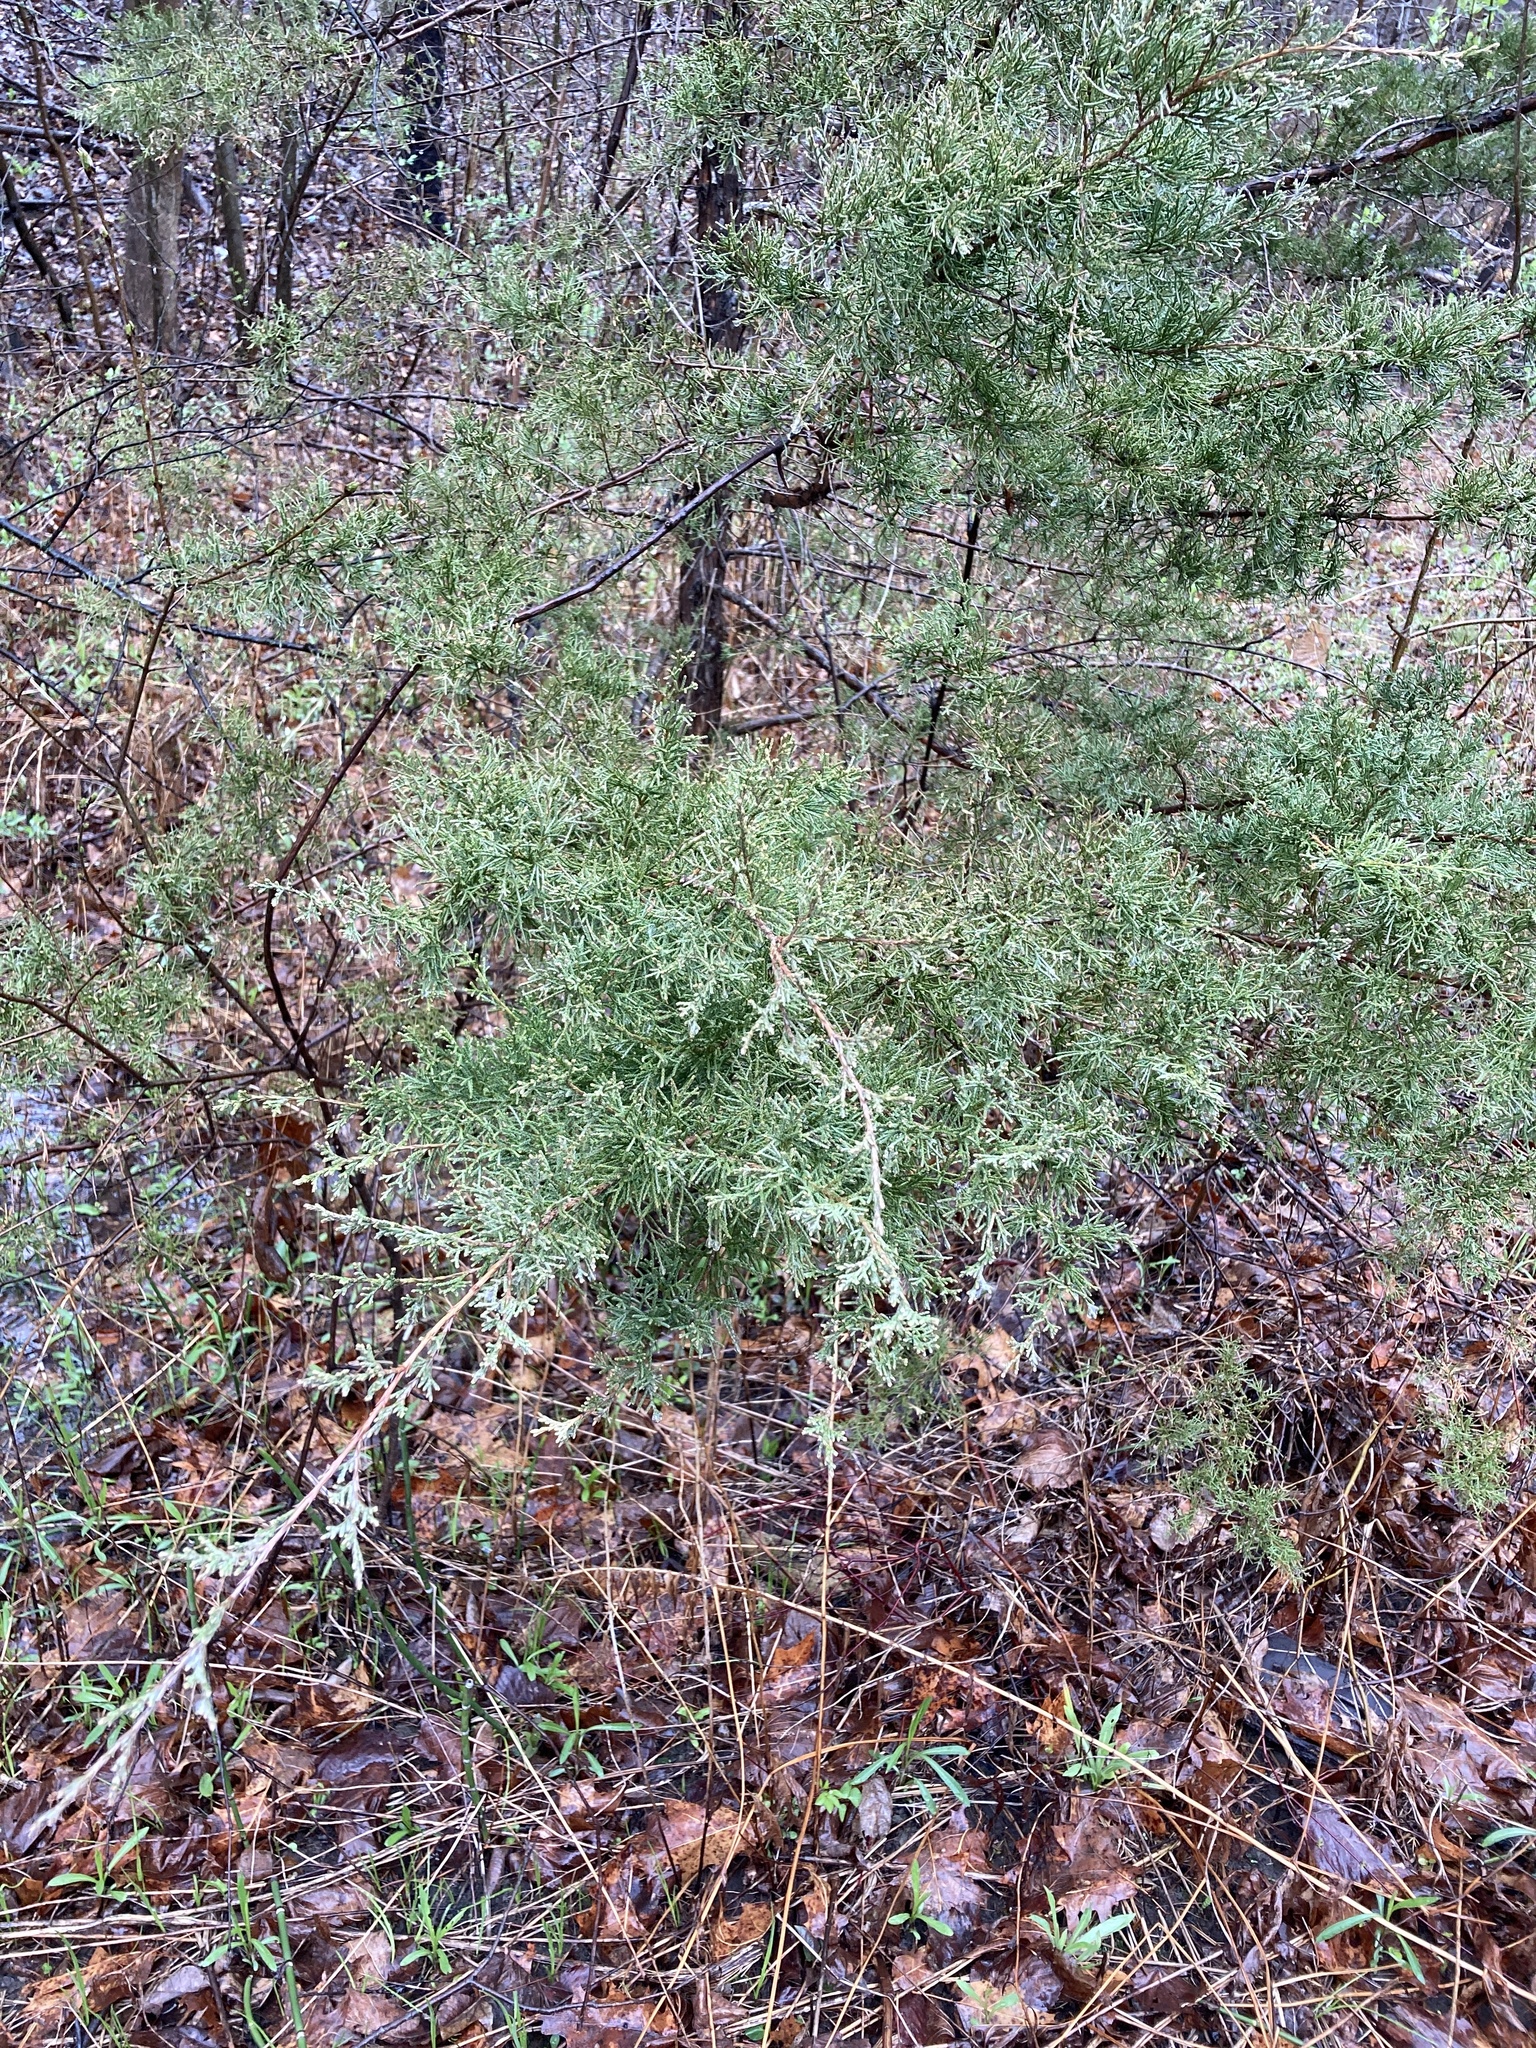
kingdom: Plantae
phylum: Tracheophyta
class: Pinopsida
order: Pinales
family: Cupressaceae
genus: Juniperus
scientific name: Juniperus virginiana
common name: Red juniper
